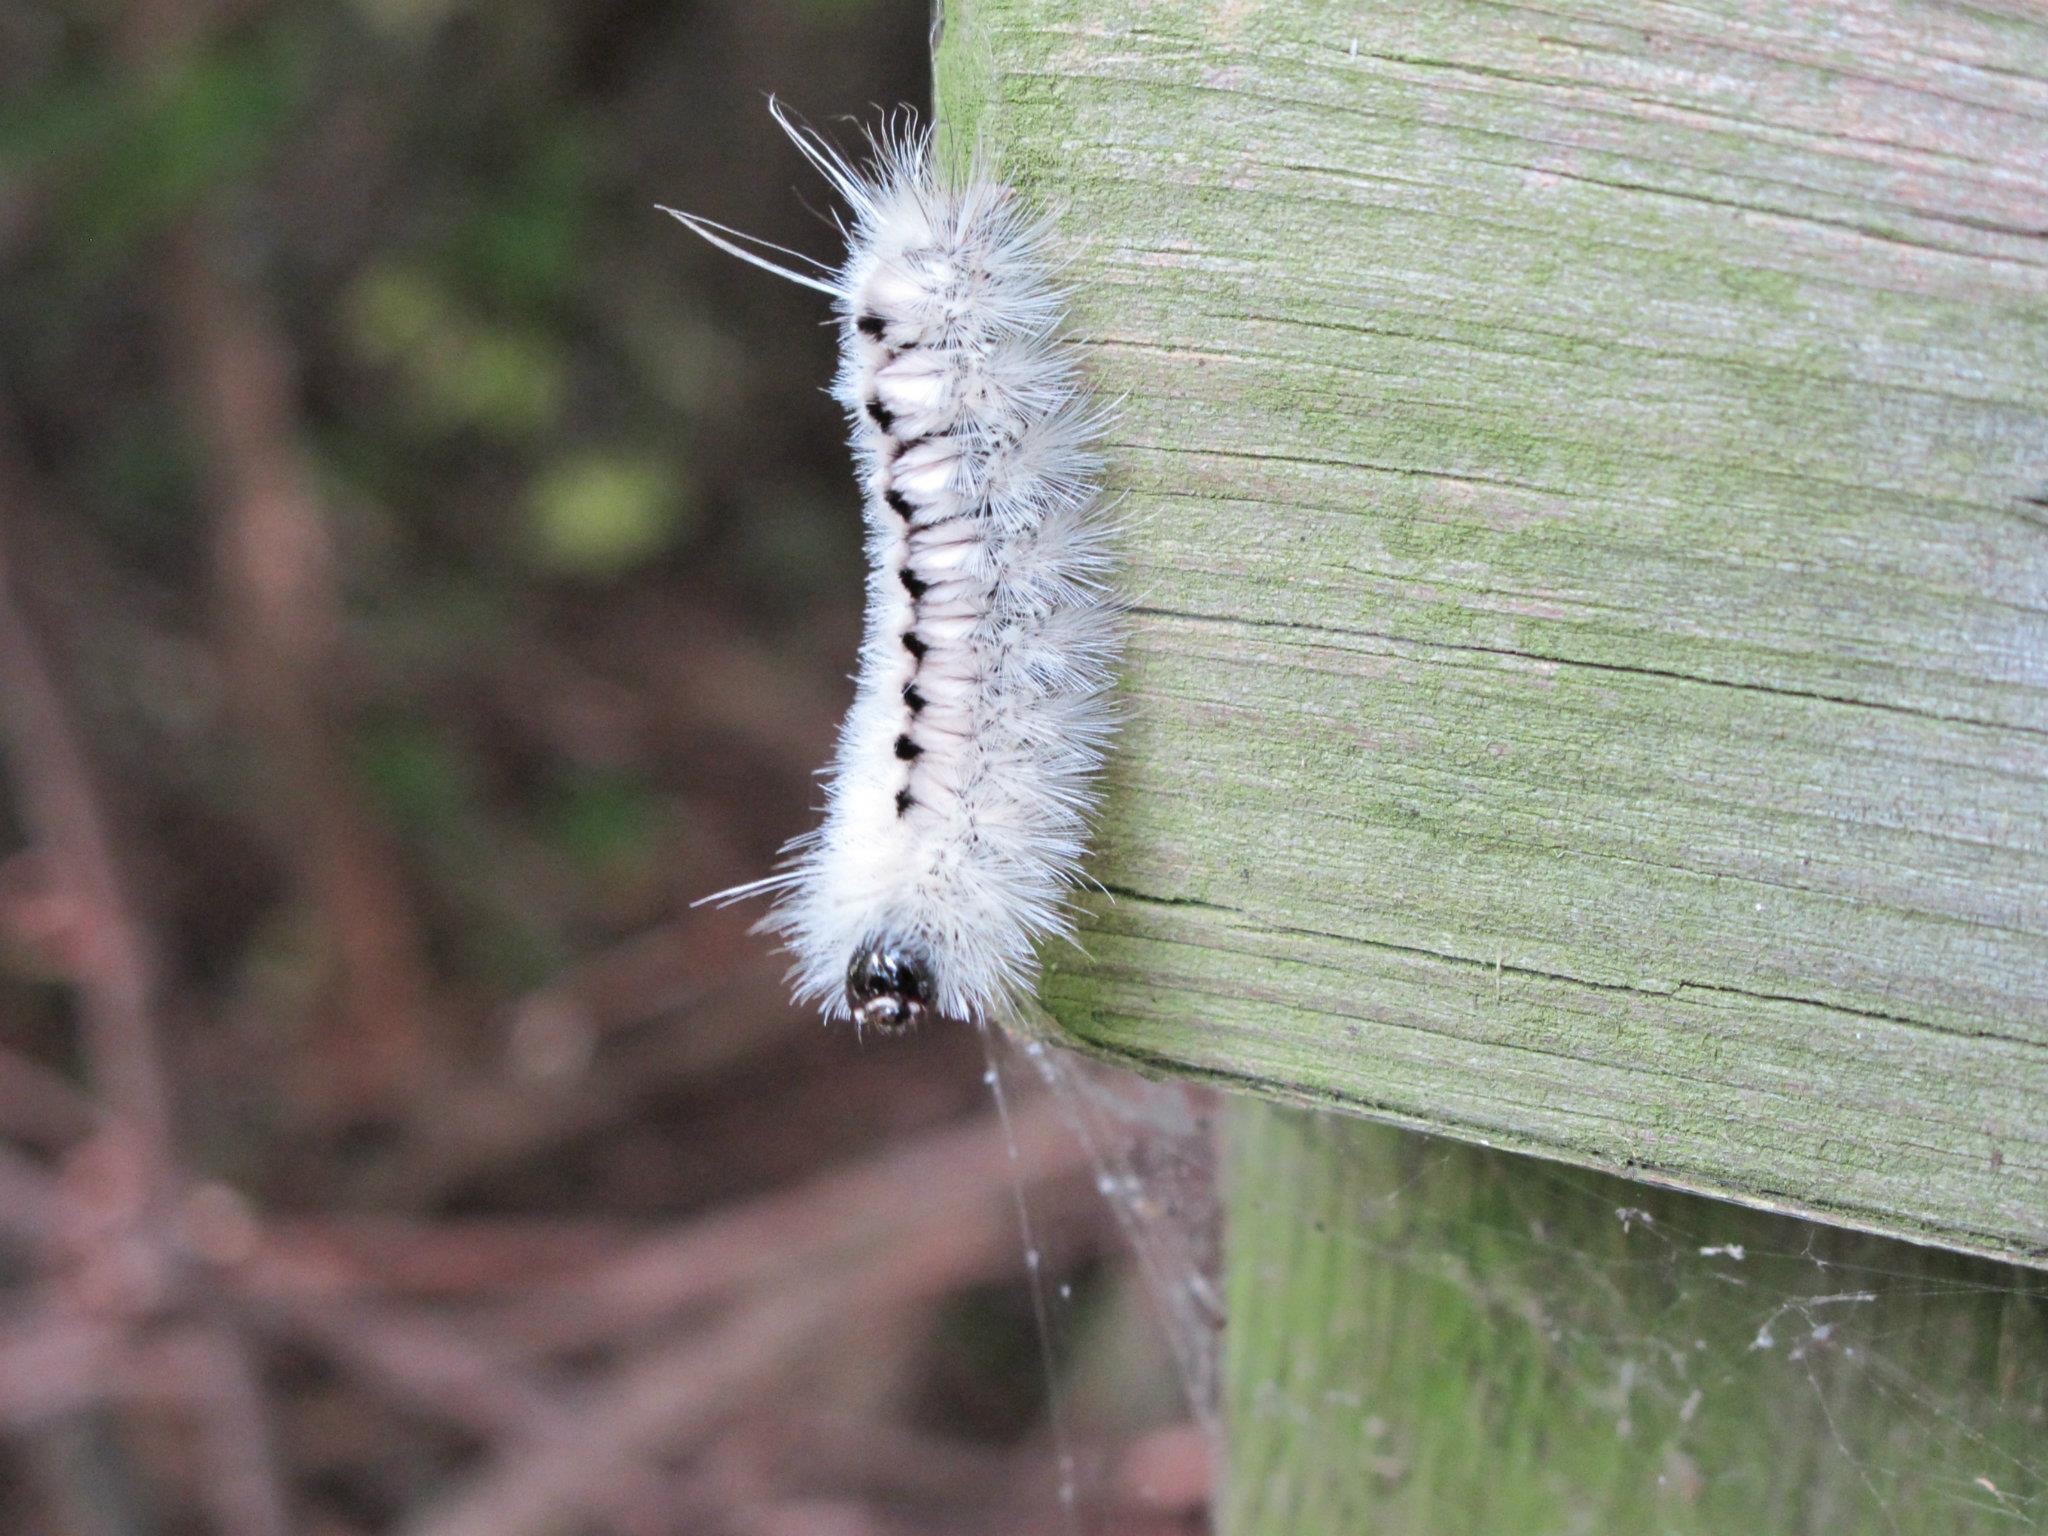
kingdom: Animalia
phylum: Arthropoda
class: Insecta
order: Lepidoptera
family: Erebidae
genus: Lophocampa
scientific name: Lophocampa caryae
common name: Hickory tussock moth
